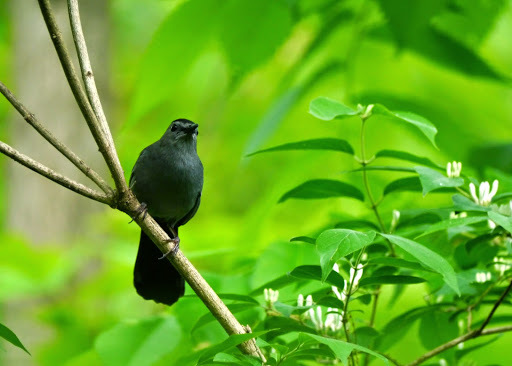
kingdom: Animalia
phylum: Chordata
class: Aves
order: Passeriformes
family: Mimidae
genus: Dumetella
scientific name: Dumetella carolinensis
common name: Gray catbird
